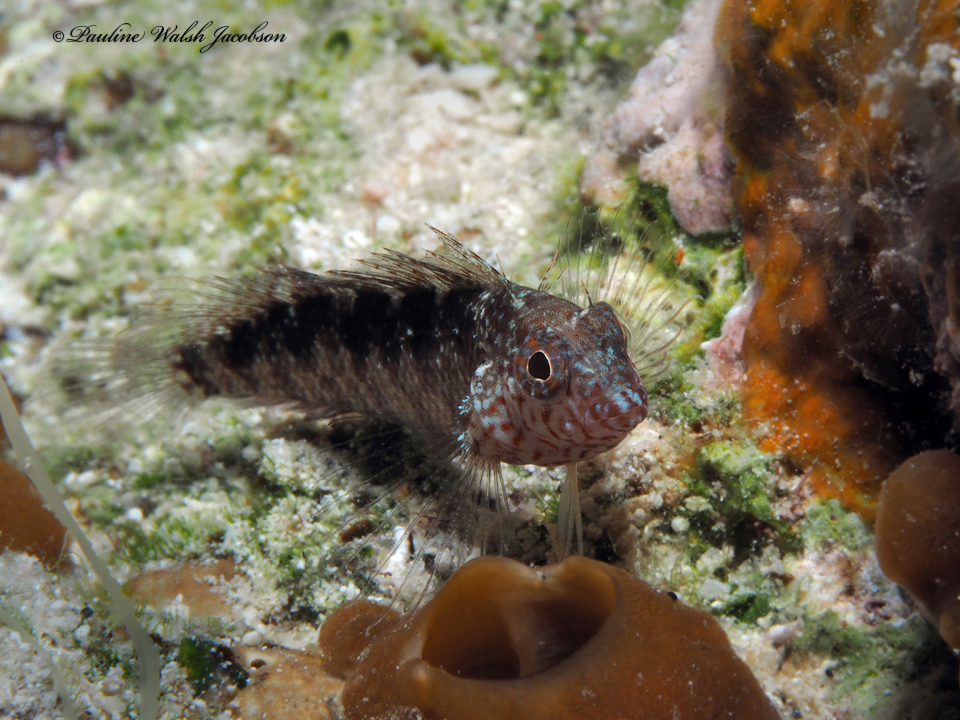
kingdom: Animalia
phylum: Chordata
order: Perciformes
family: Labrisomidae
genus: Malacoctenus
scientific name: Malacoctenus macropus
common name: Rosy blenny
